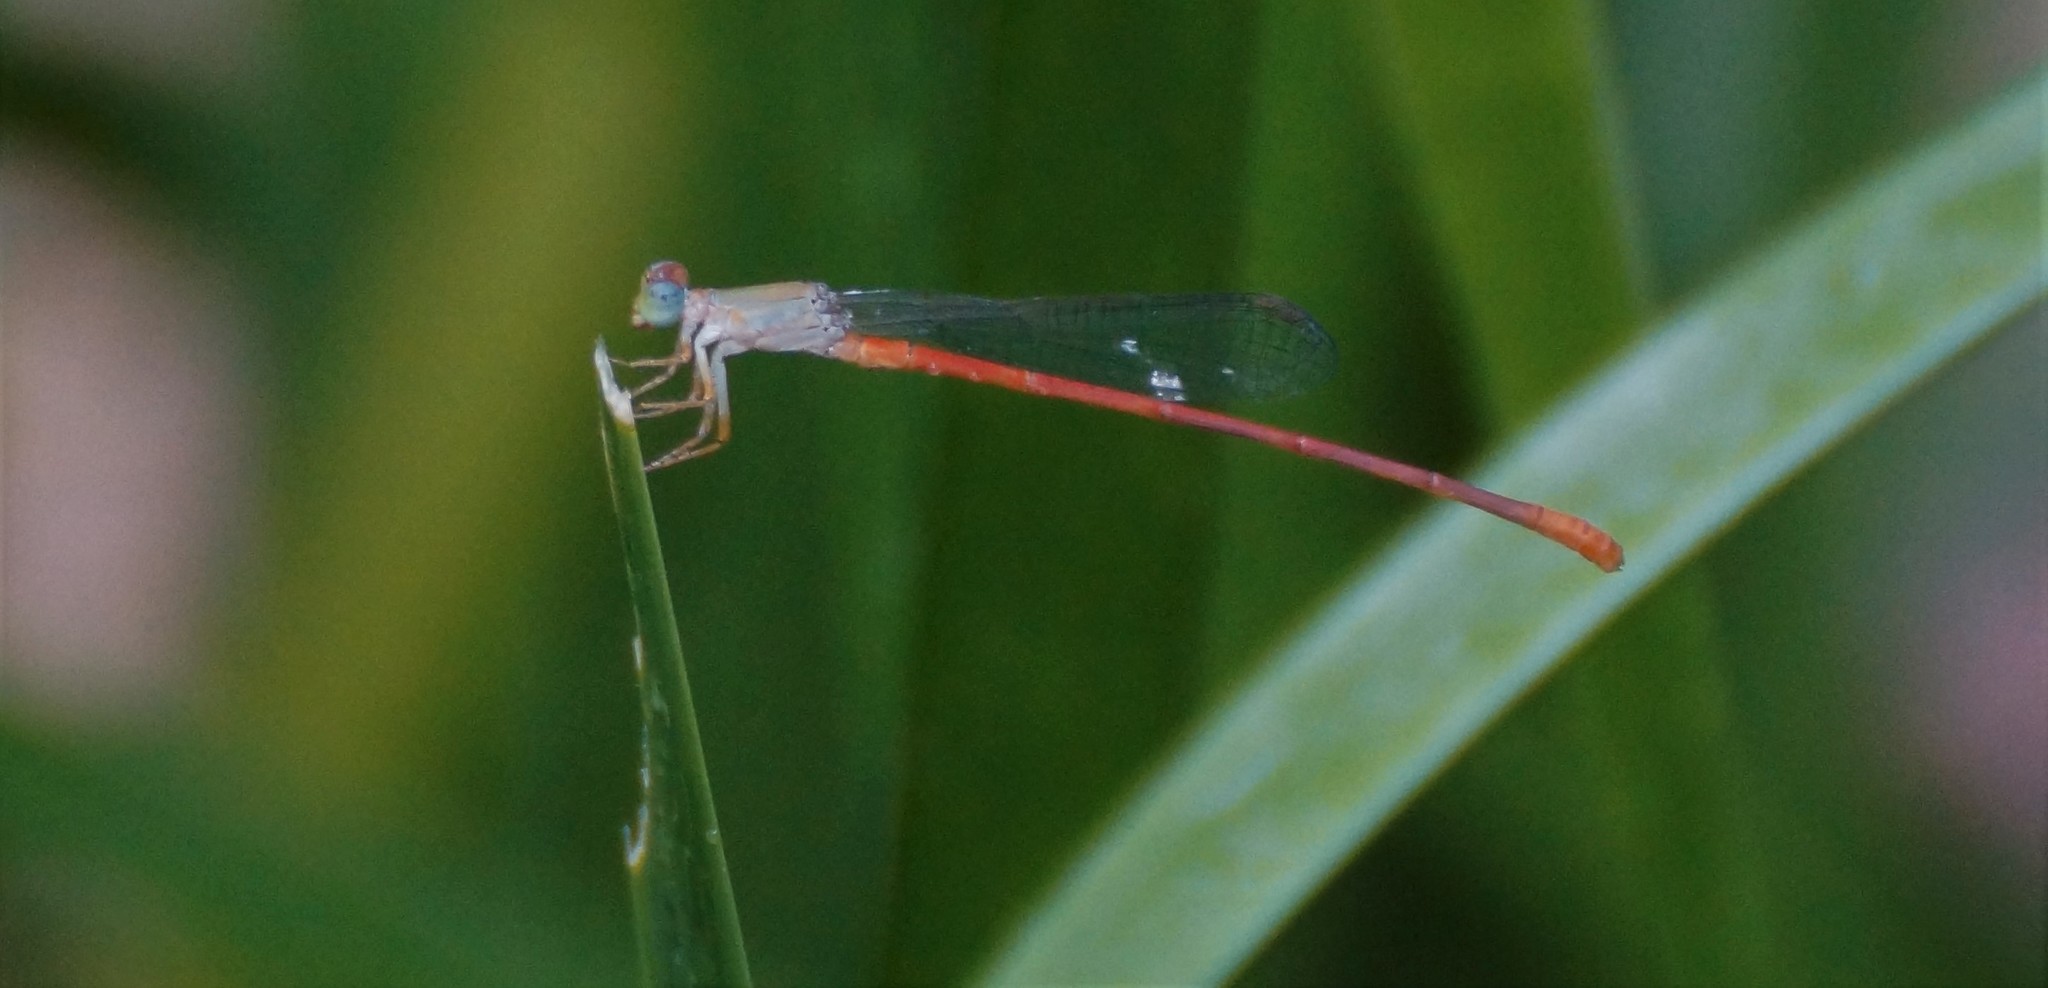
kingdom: Animalia
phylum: Arthropoda
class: Insecta
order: Odonata
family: Coenagrionidae
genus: Ceriagrion
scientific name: Ceriagrion aeruginosum
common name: Redtail
